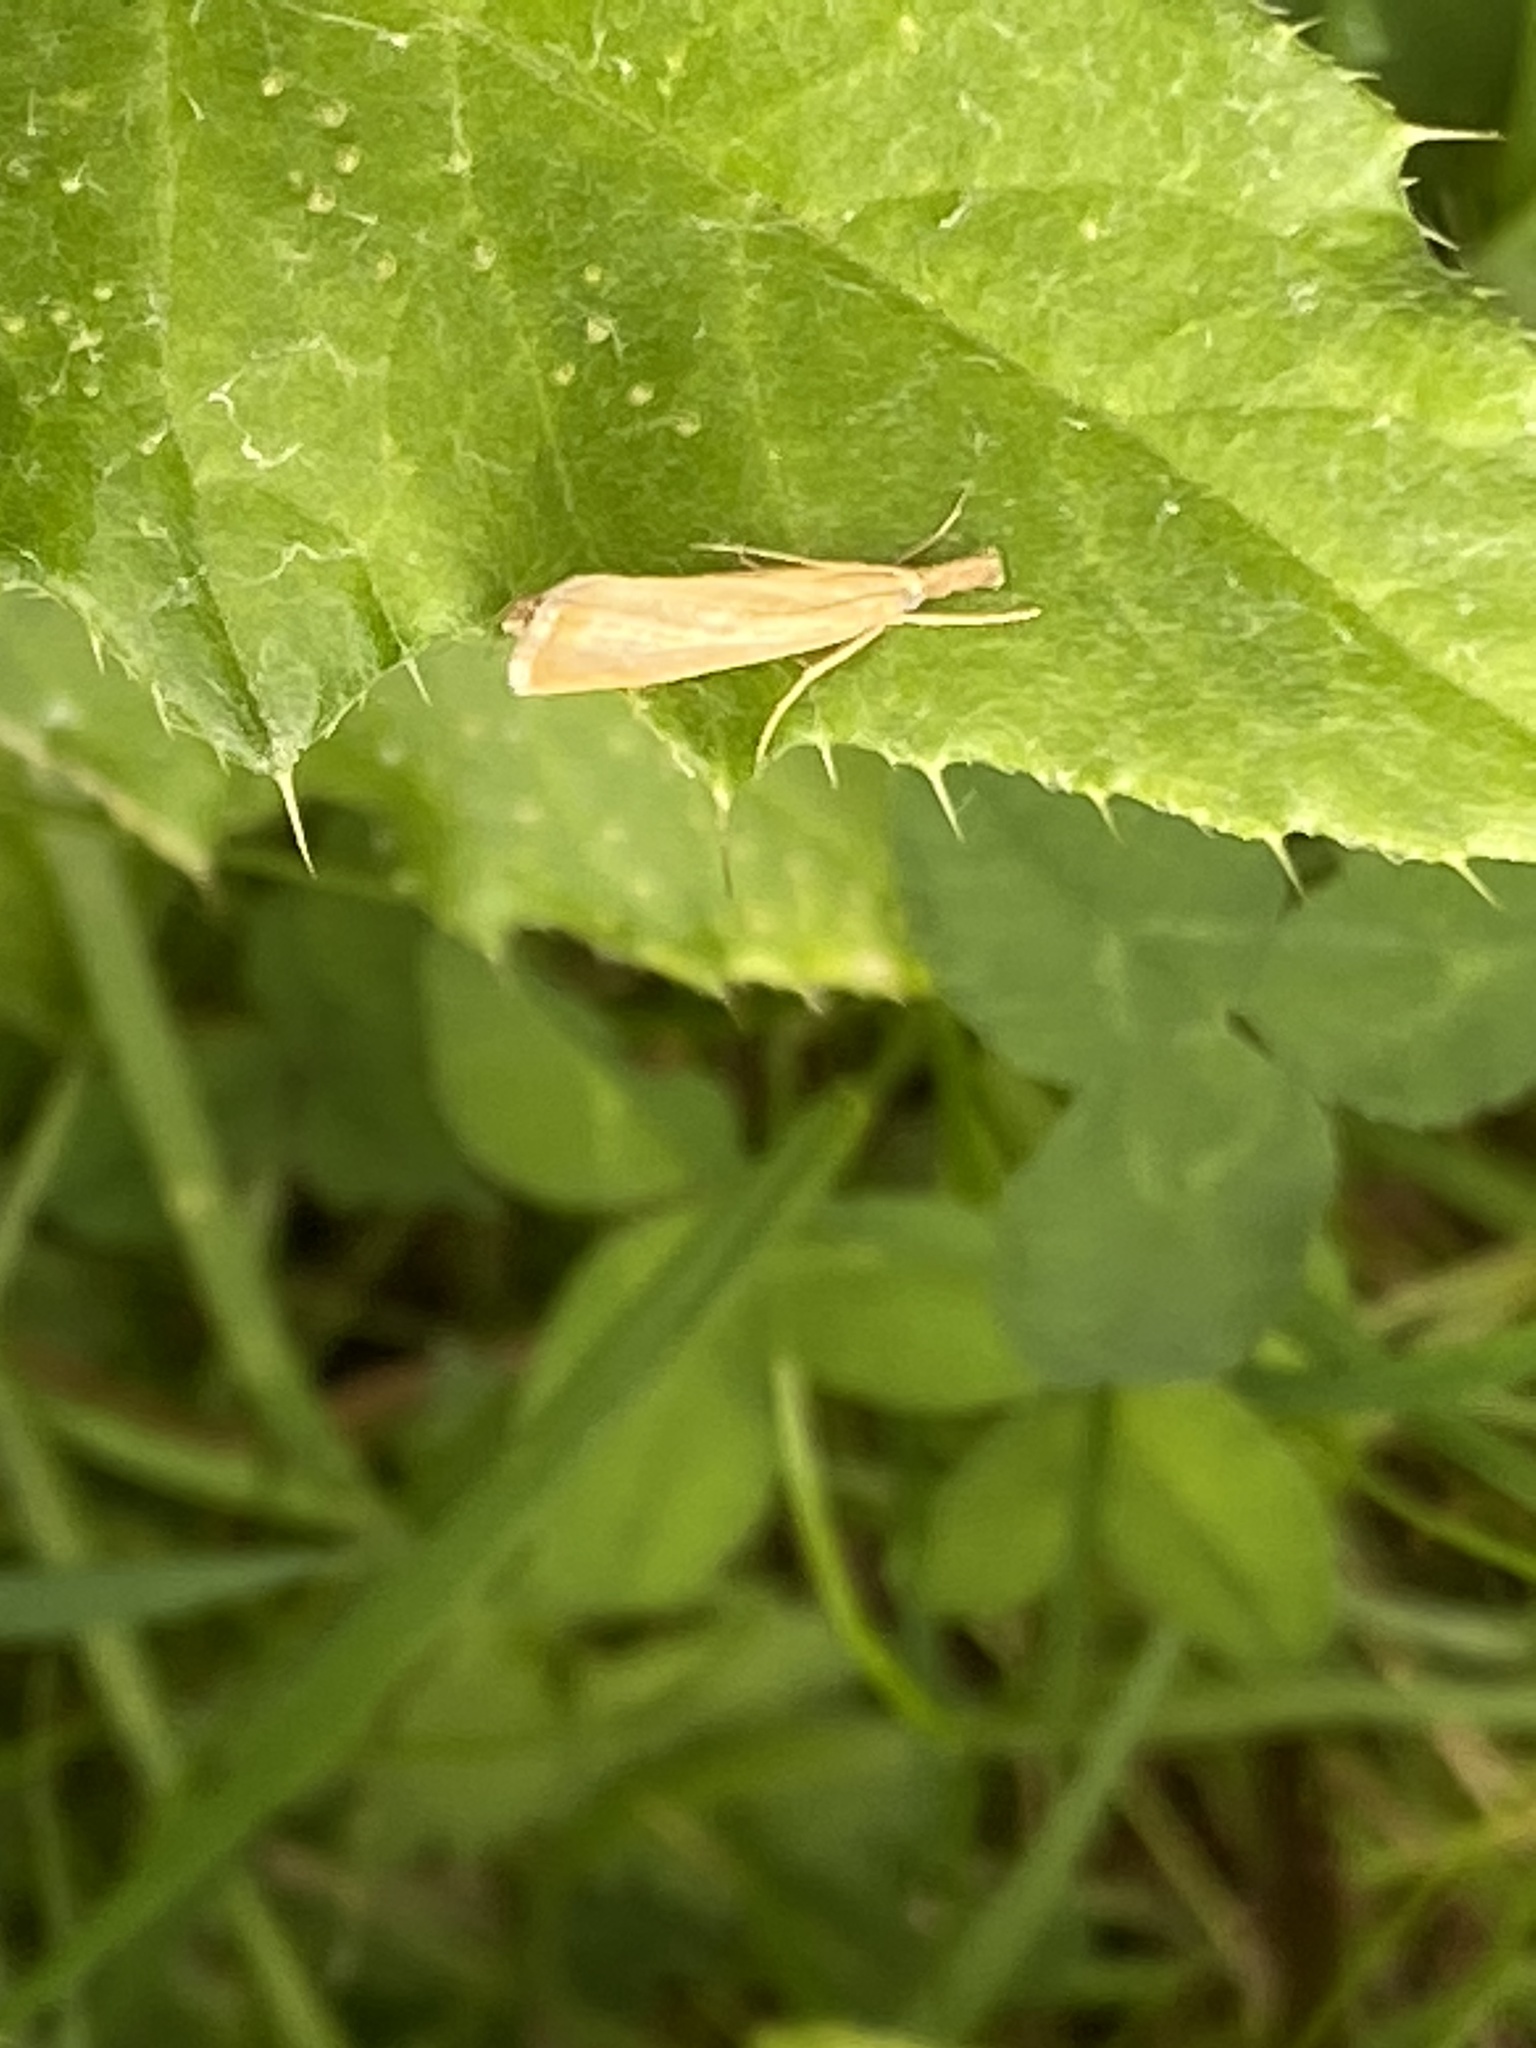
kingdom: Animalia
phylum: Arthropoda
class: Insecta
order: Lepidoptera
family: Crambidae
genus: Agriphila
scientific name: Agriphila straminella
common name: Straw grass-veneer
